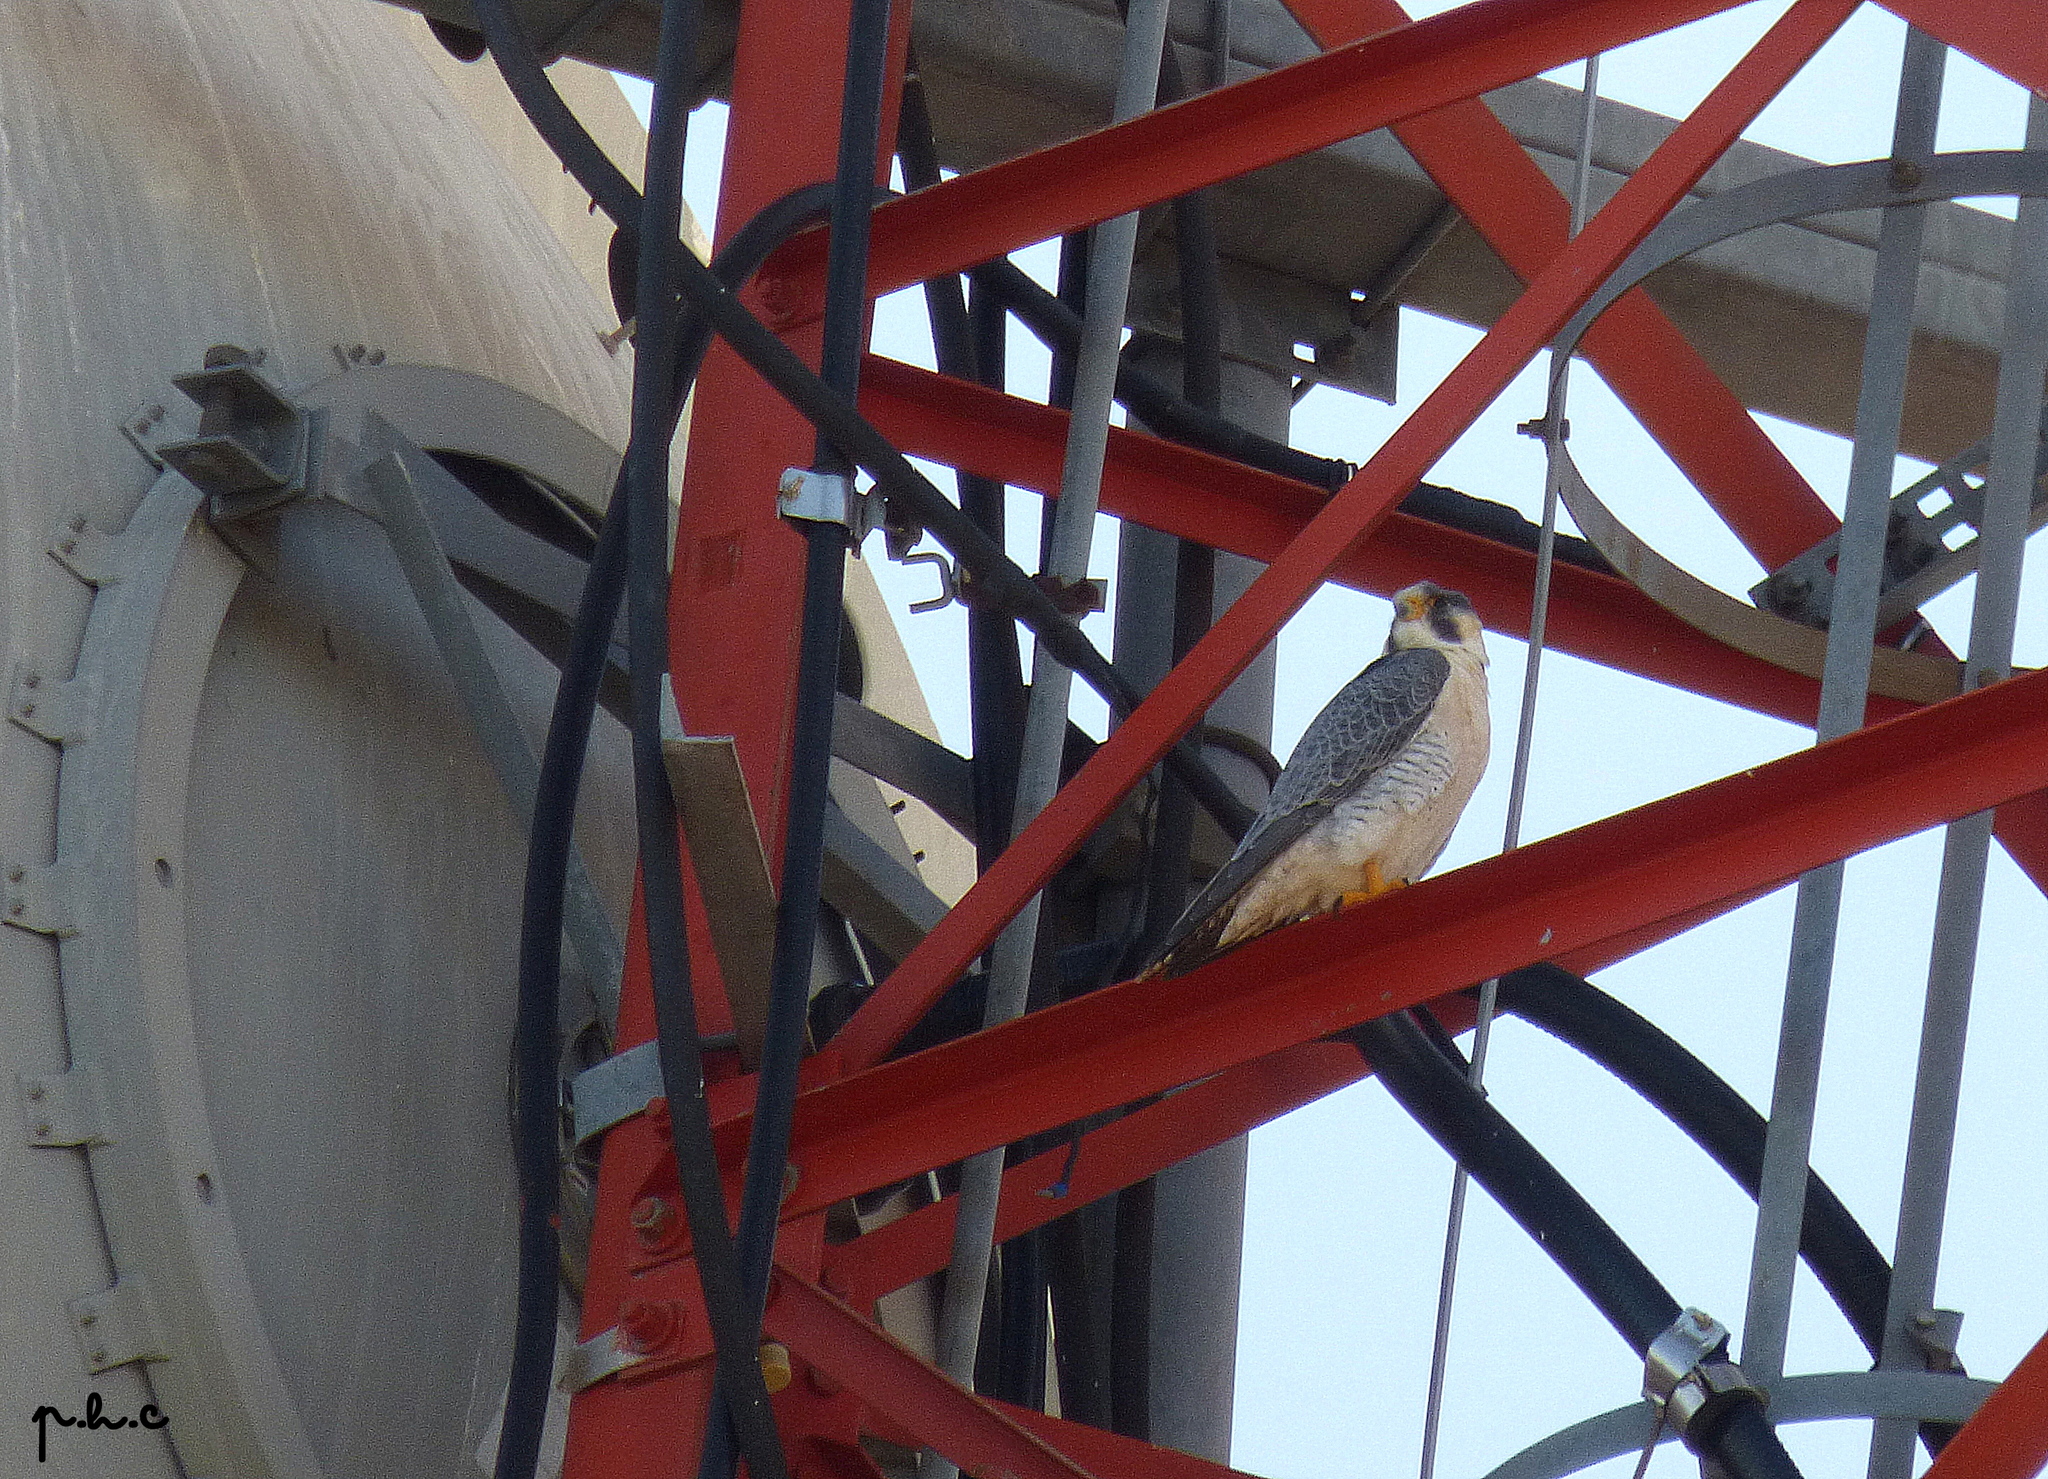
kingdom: Animalia
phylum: Chordata
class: Aves
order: Falconiformes
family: Falconidae
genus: Falco
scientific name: Falco peregrinus
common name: Peregrine falcon
